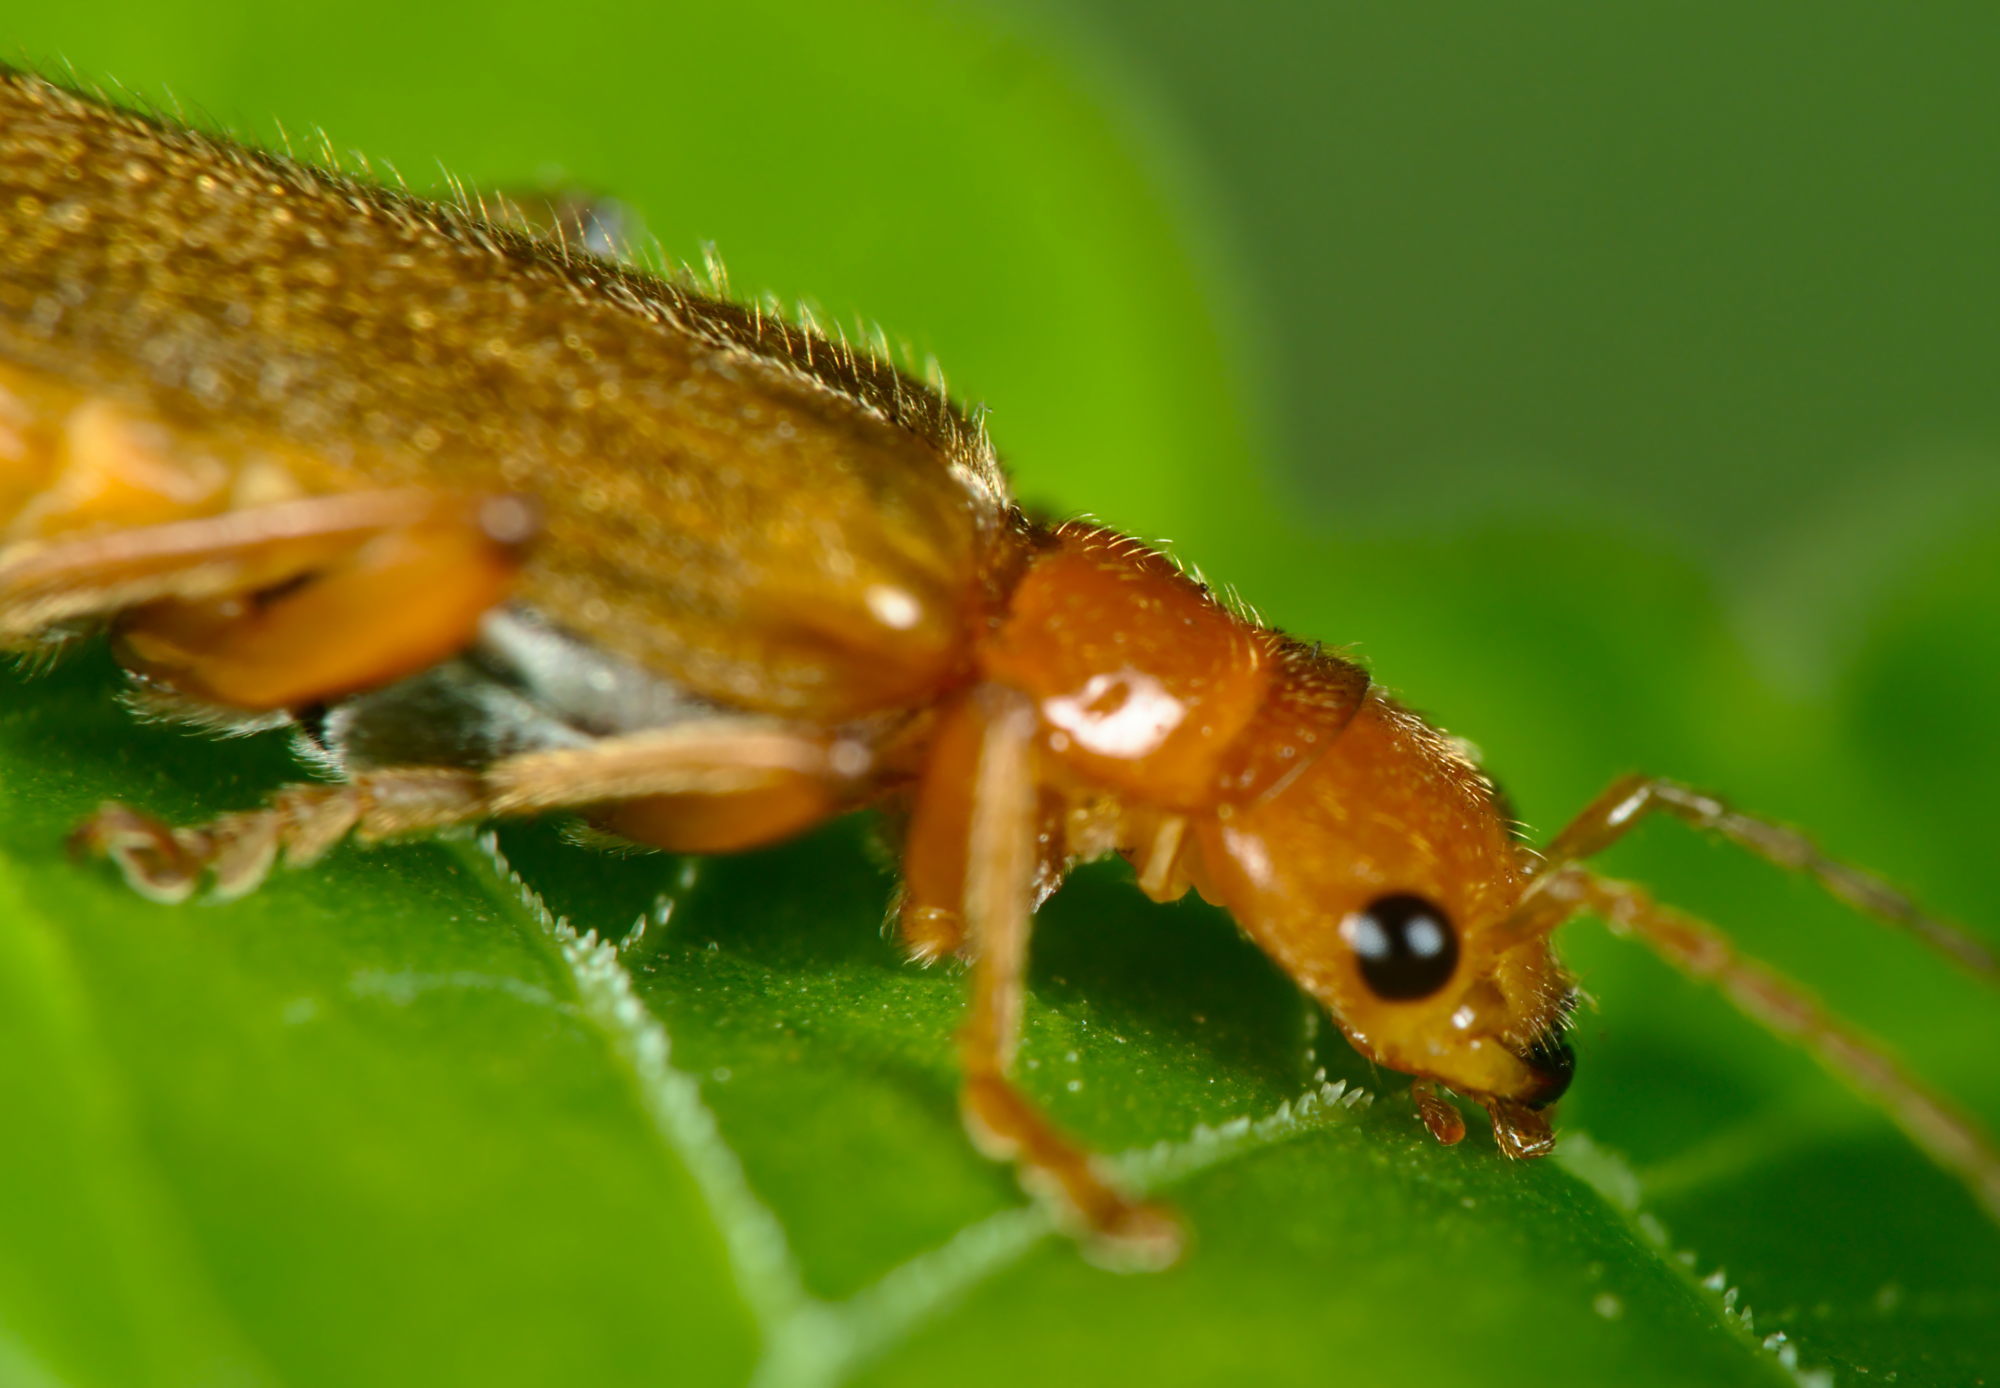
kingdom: Animalia
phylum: Arthropoda
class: Insecta
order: Coleoptera
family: Cantharidae
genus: Cantharis
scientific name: Cantharis cryptica
